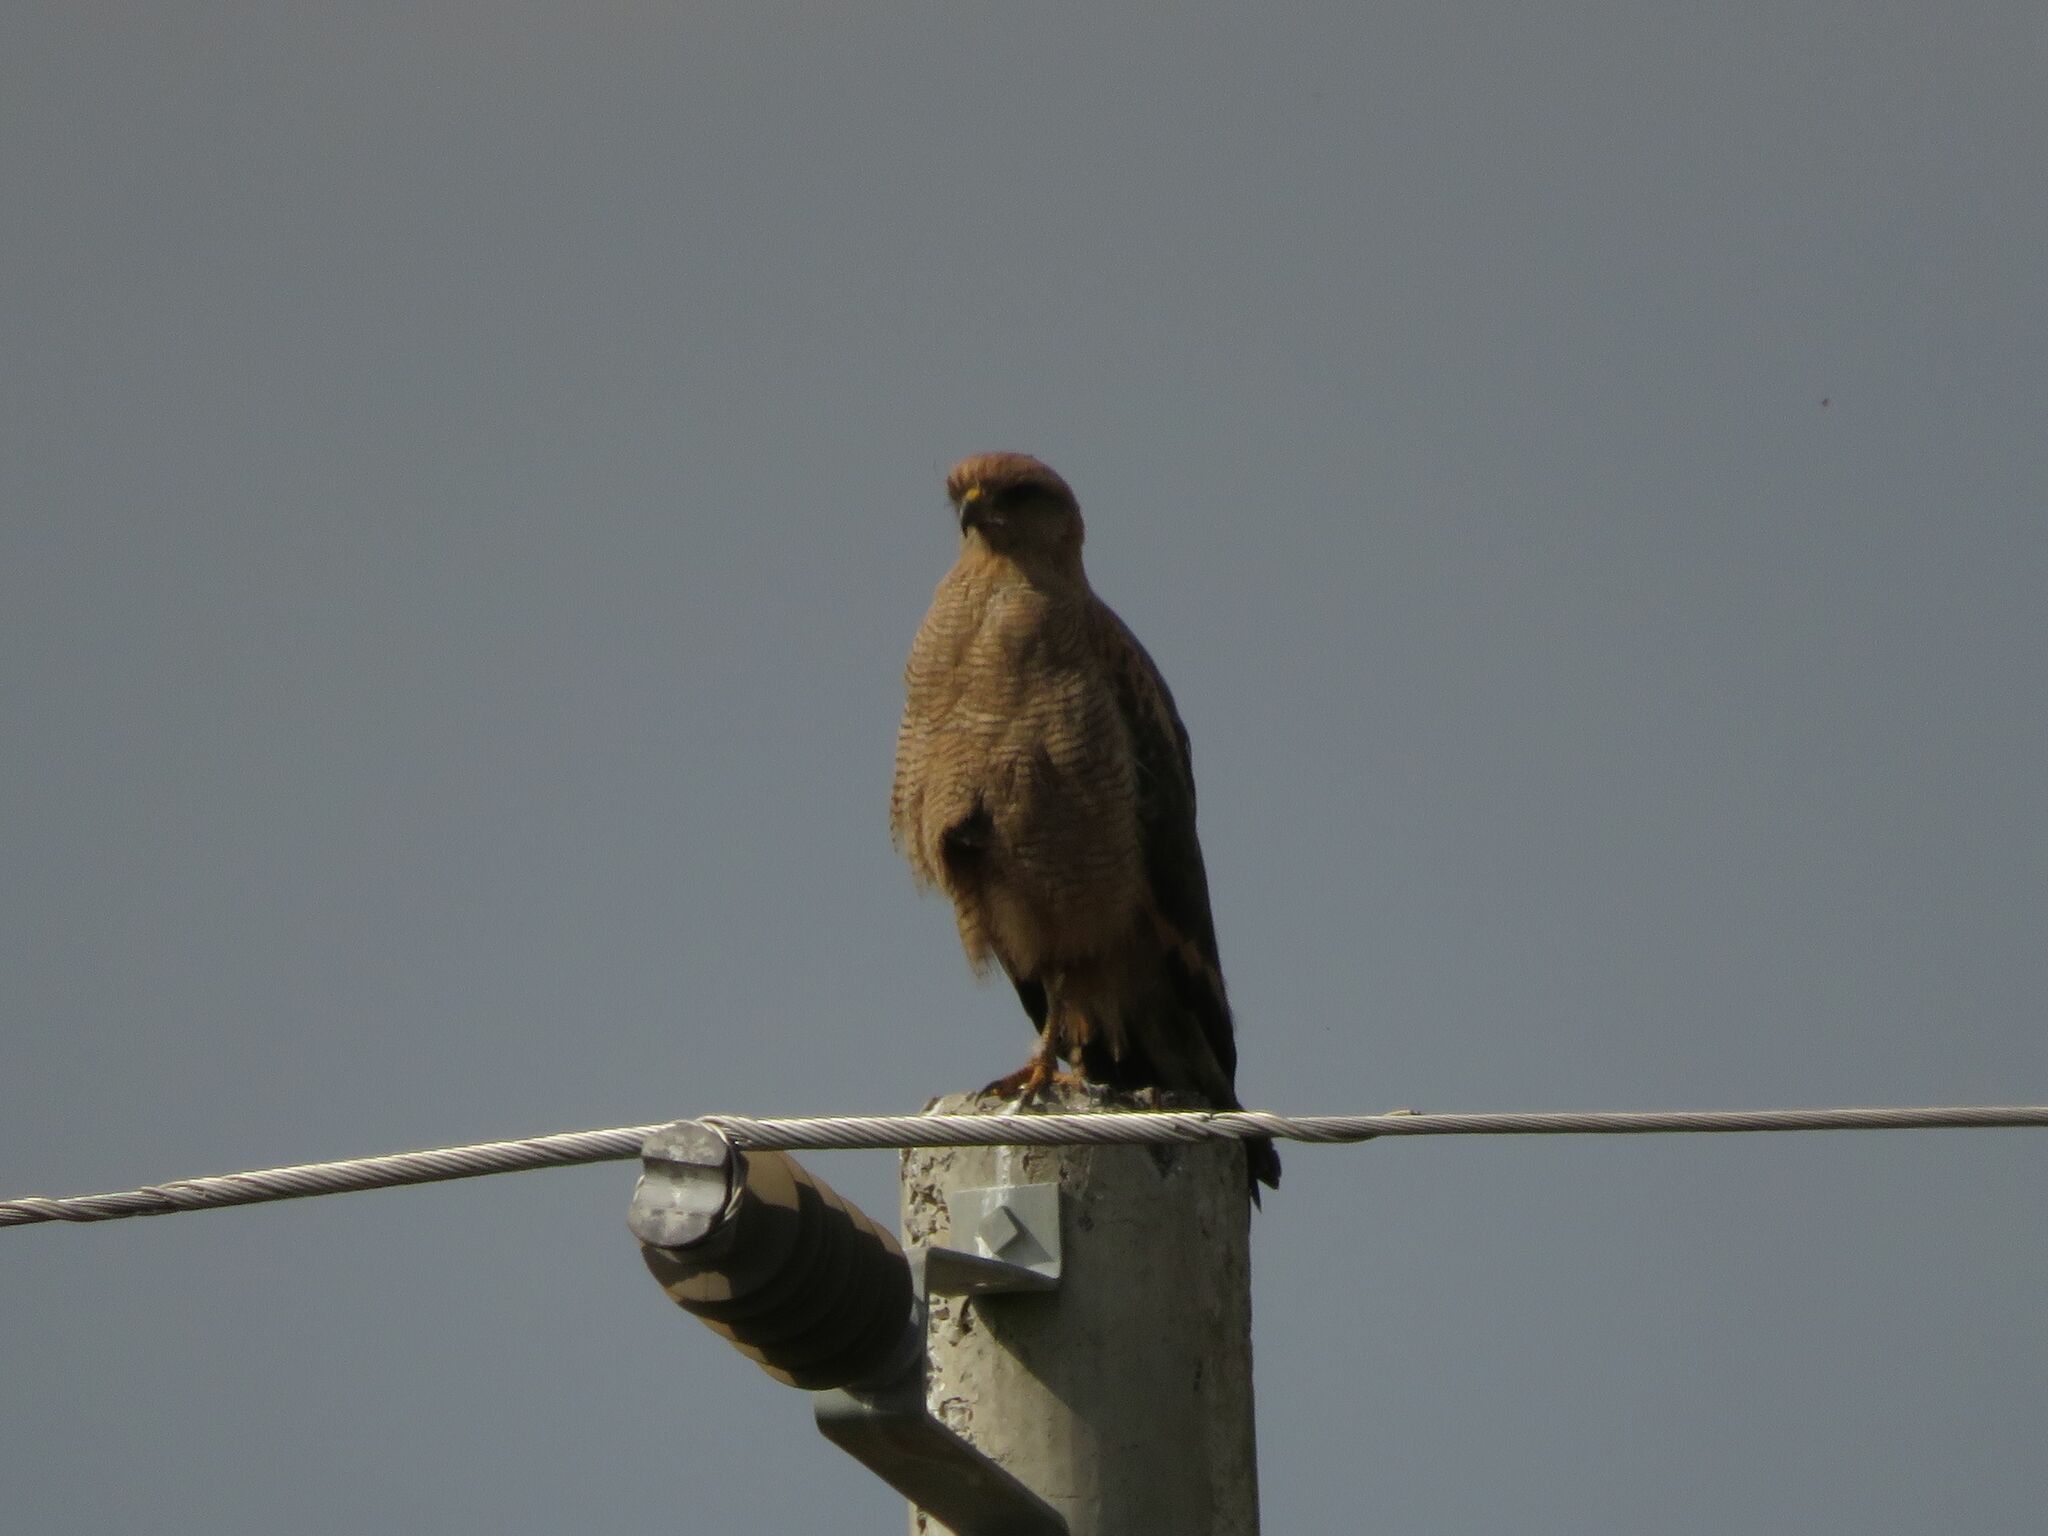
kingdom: Animalia
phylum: Chordata
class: Aves
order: Accipitriformes
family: Accipitridae
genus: Buteogallus
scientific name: Buteogallus meridionalis
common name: Savanna hawk
